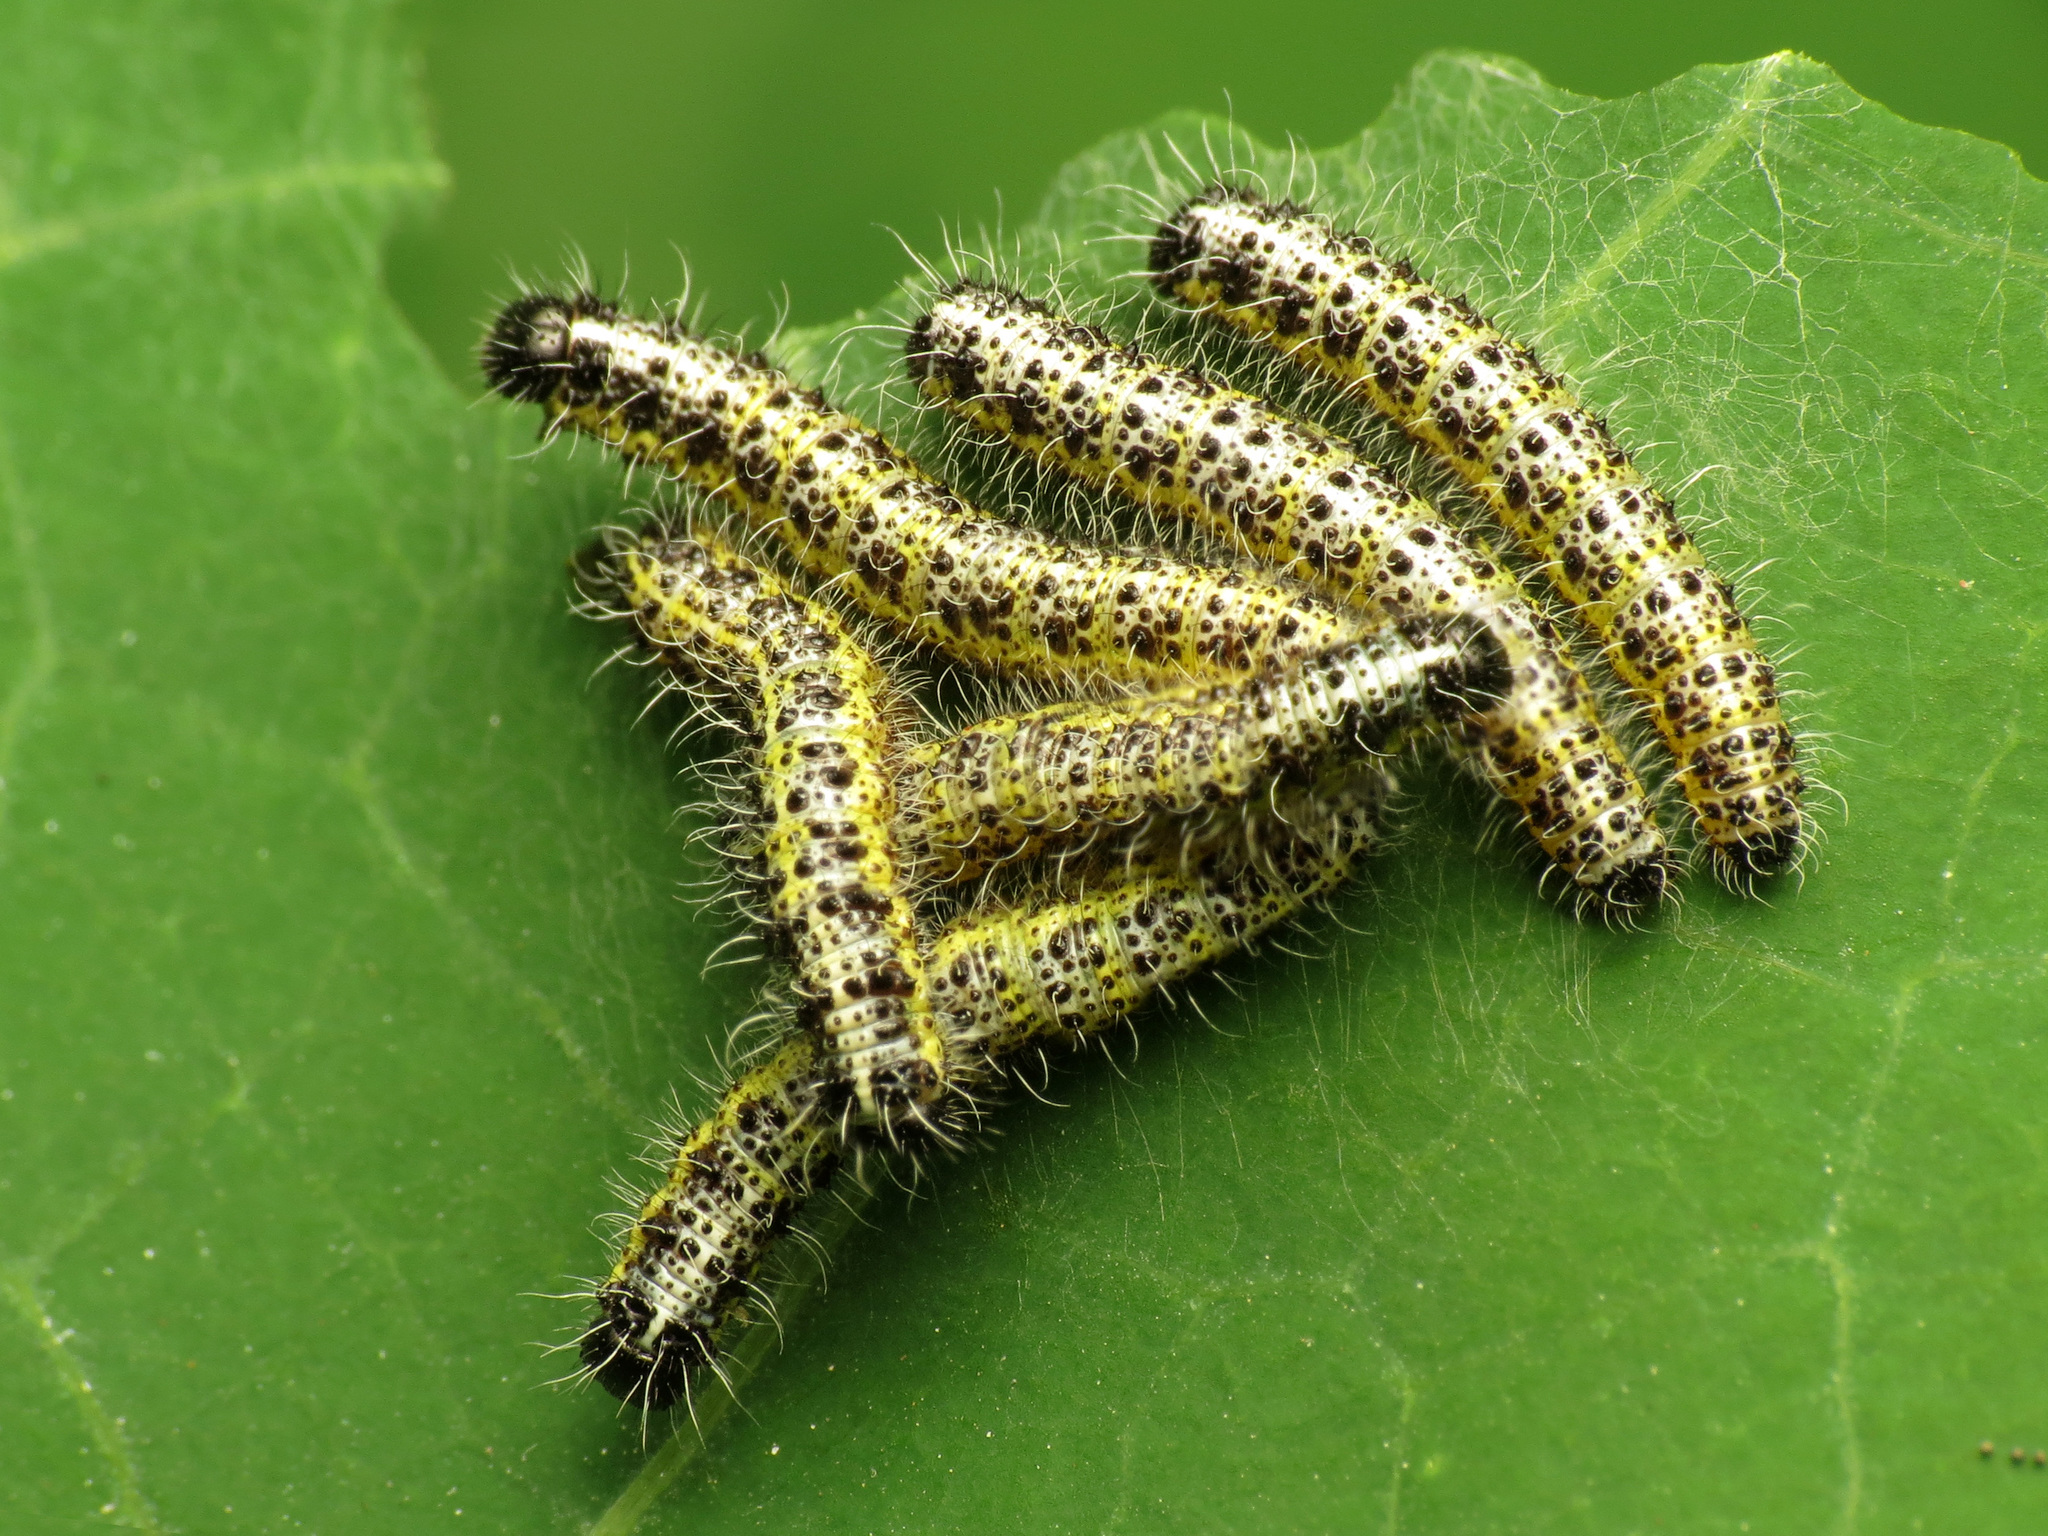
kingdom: Animalia
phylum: Arthropoda
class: Insecta
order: Lepidoptera
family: Pieridae
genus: Pieris
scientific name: Pieris brassicae
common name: Large white
